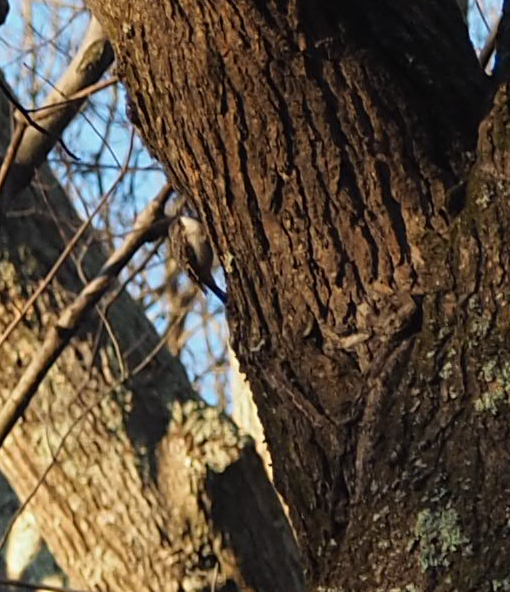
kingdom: Animalia
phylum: Chordata
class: Aves
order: Passeriformes
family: Certhiidae
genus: Certhia
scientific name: Certhia americana
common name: Brown creeper
